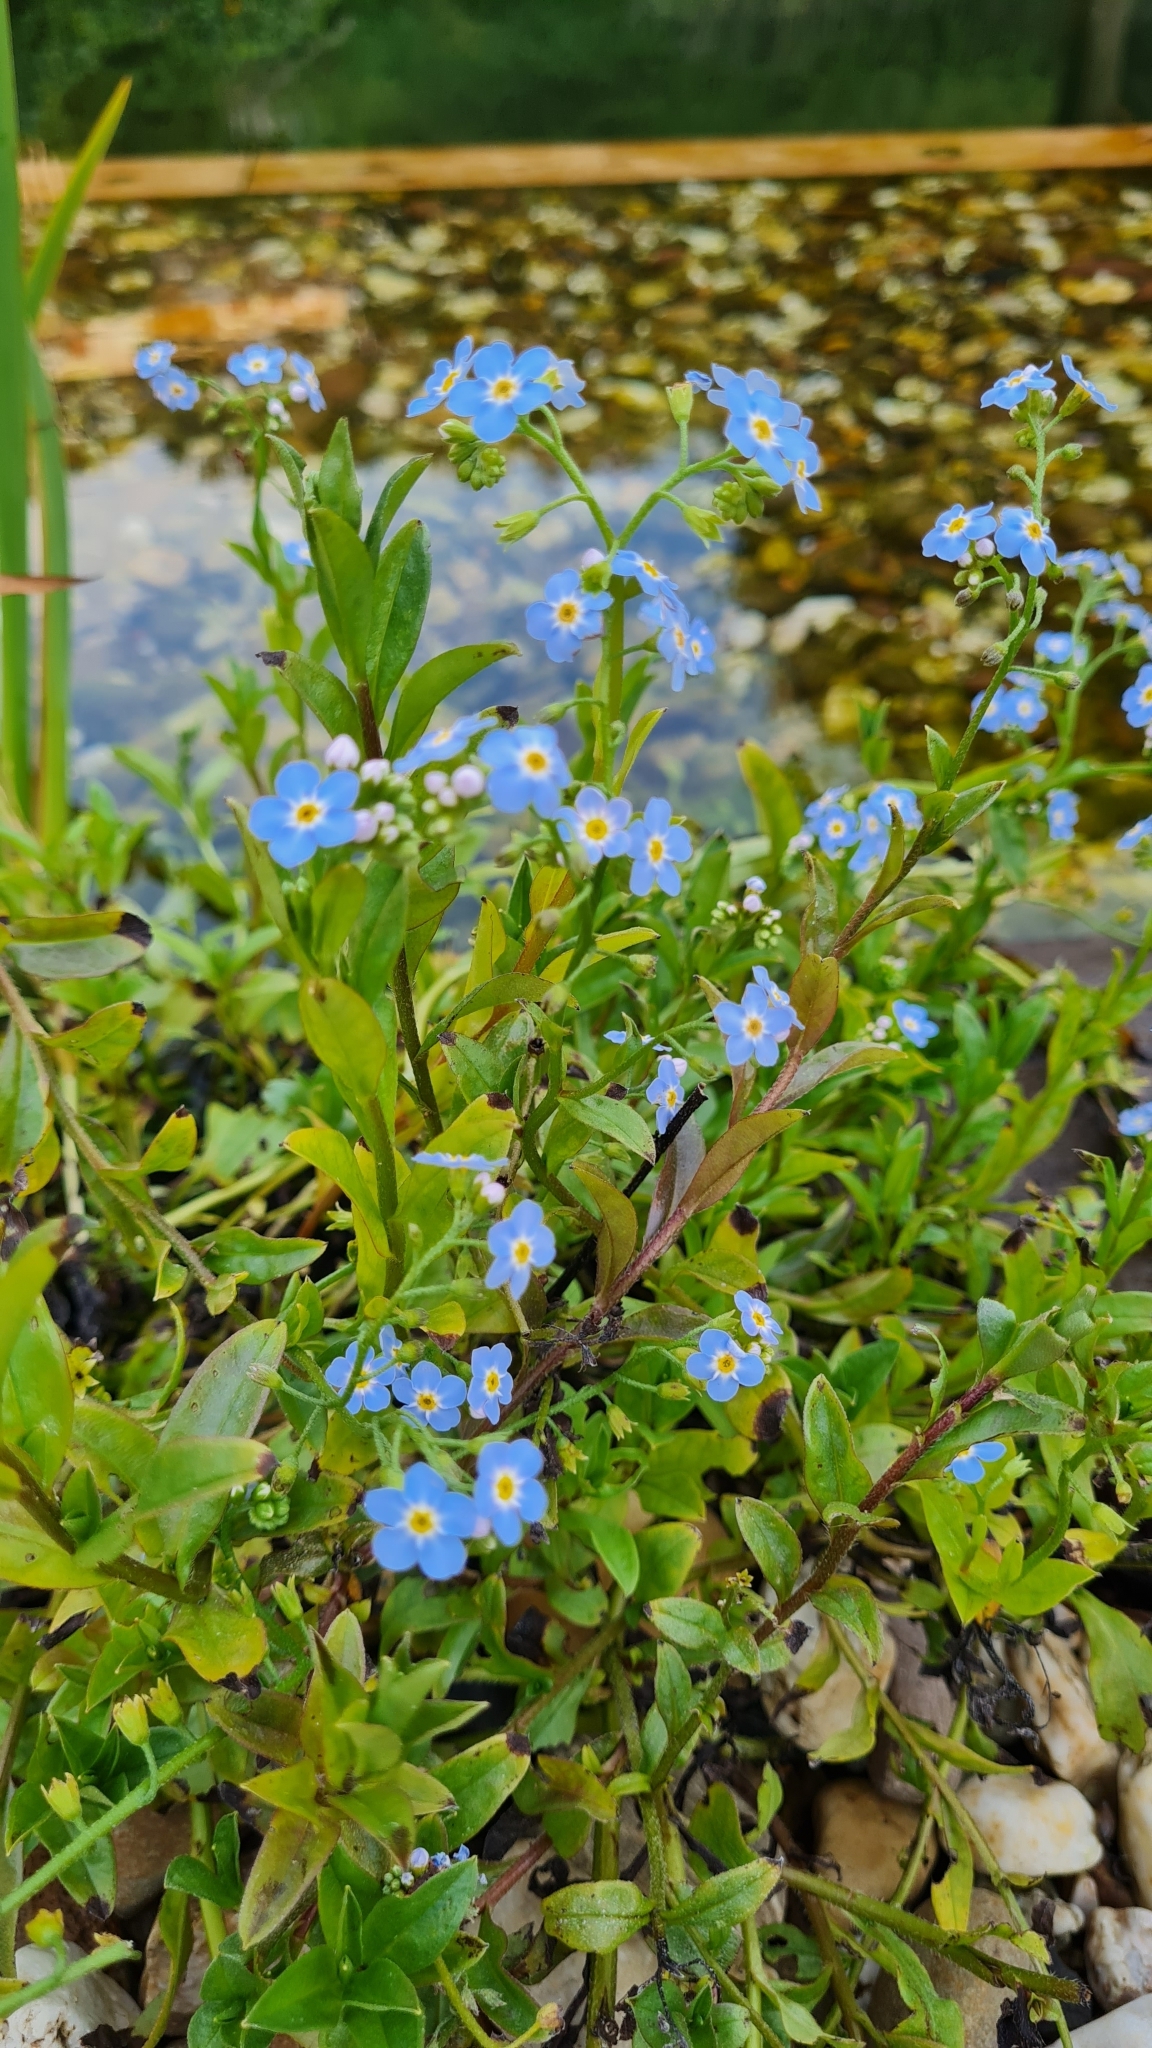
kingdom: Plantae
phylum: Tracheophyta
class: Magnoliopsida
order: Boraginales
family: Boraginaceae
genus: Myosotis
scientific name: Myosotis scorpioides
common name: Water forget-me-not
